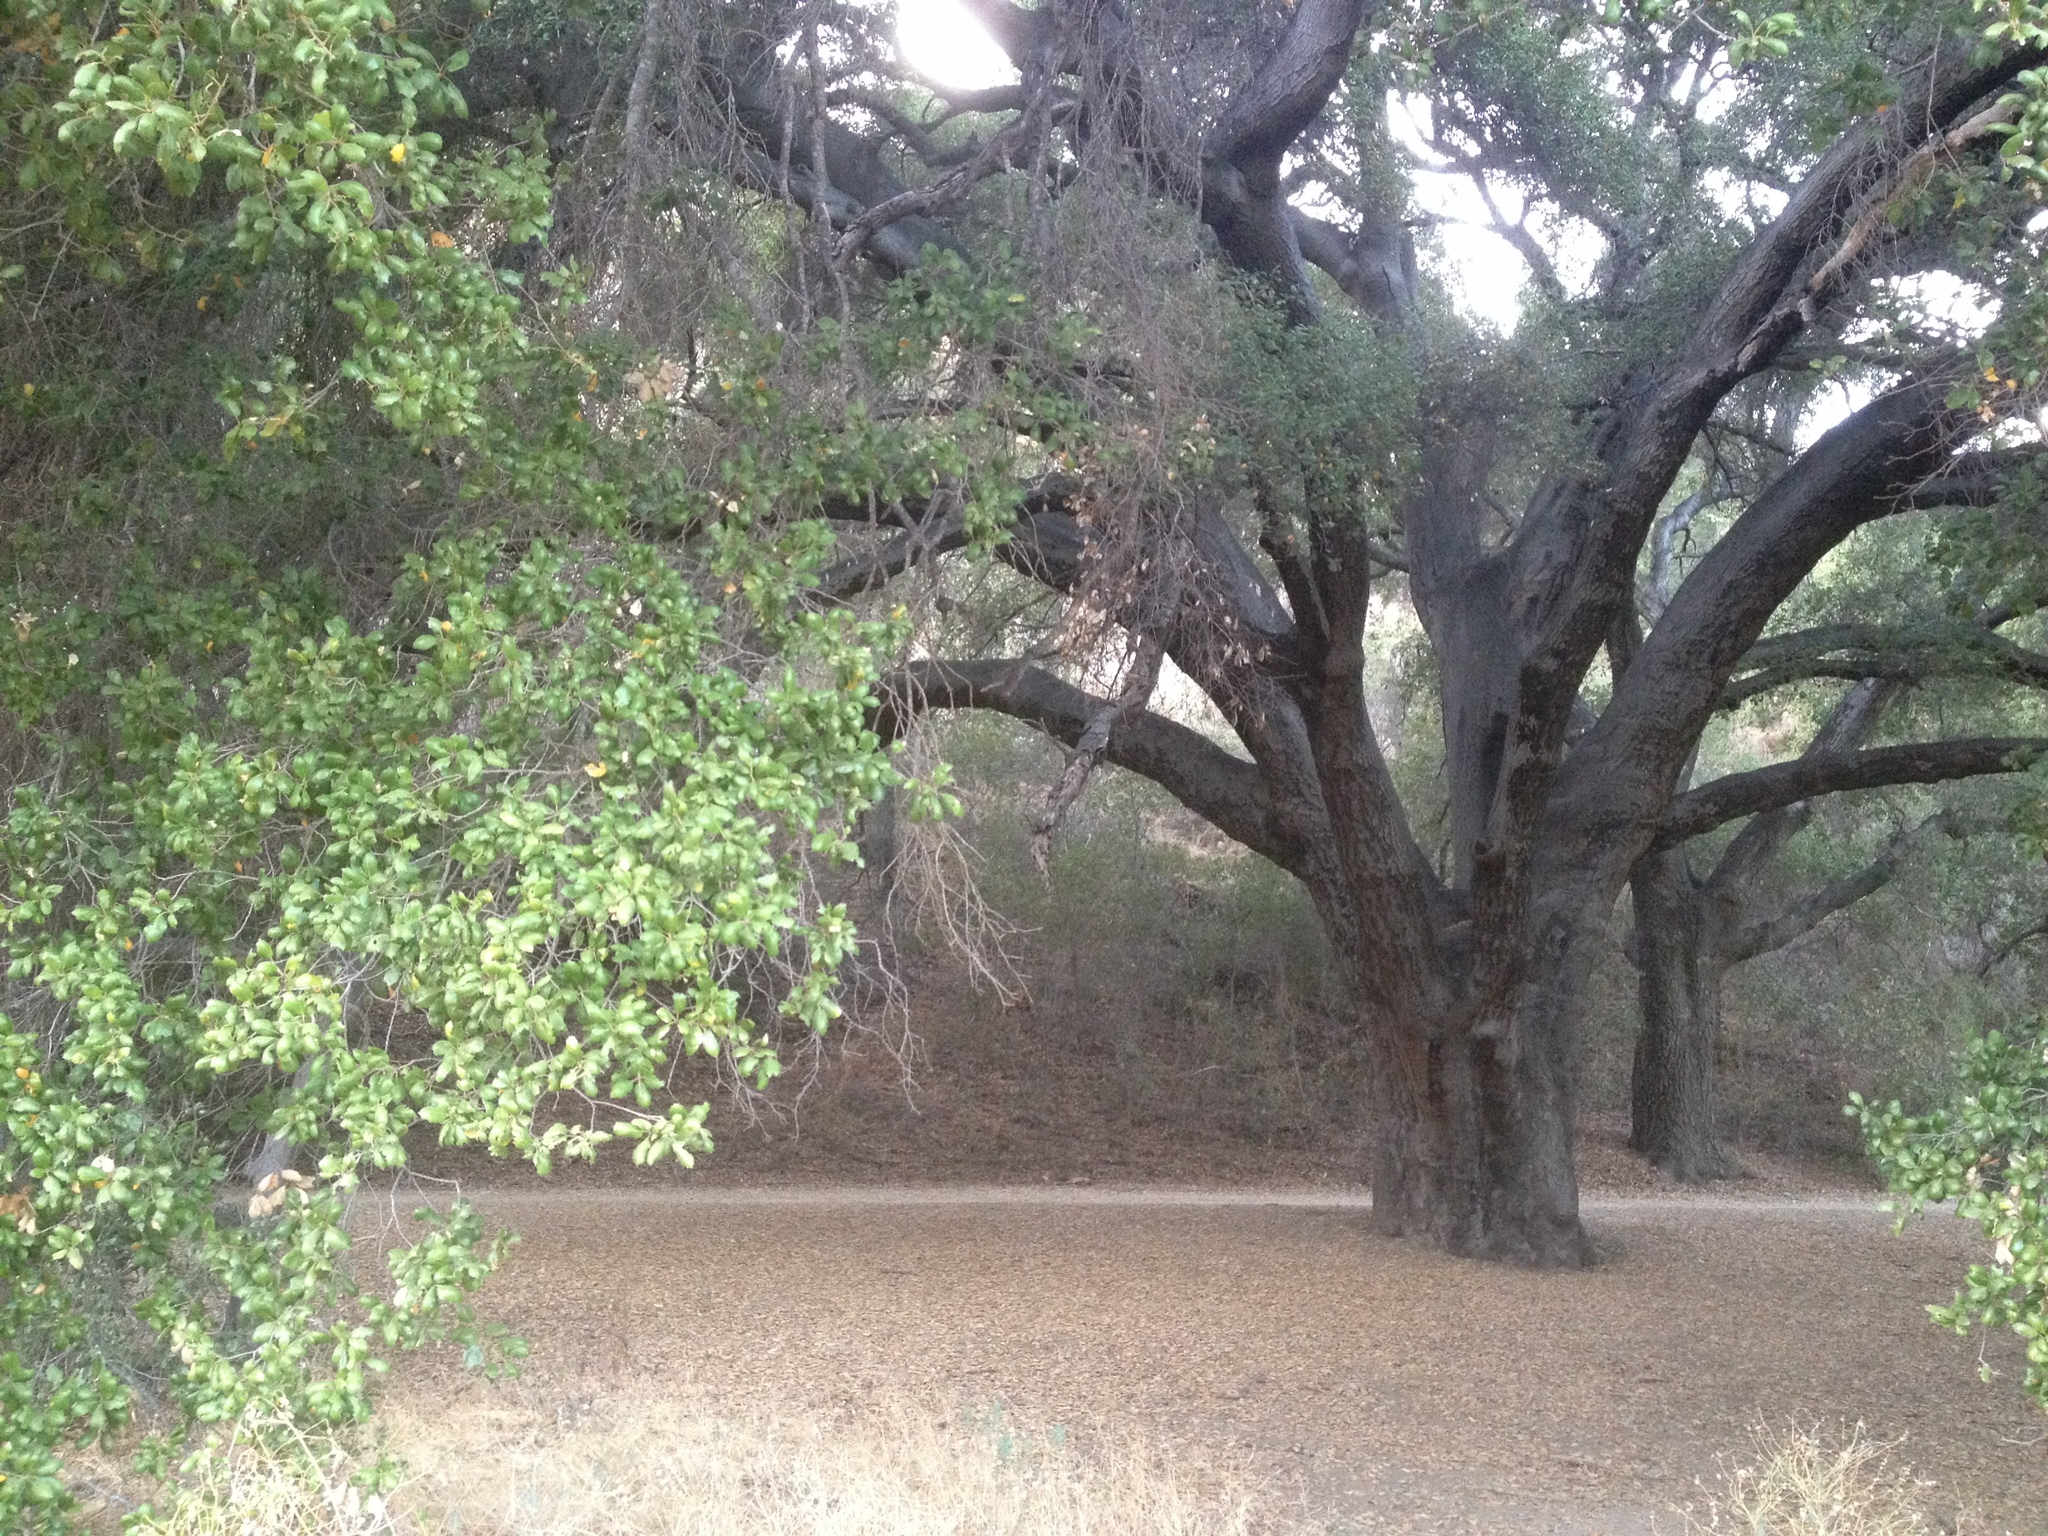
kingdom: Plantae
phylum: Tracheophyta
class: Magnoliopsida
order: Fagales
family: Fagaceae
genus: Quercus
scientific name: Quercus agrifolia
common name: California live oak
